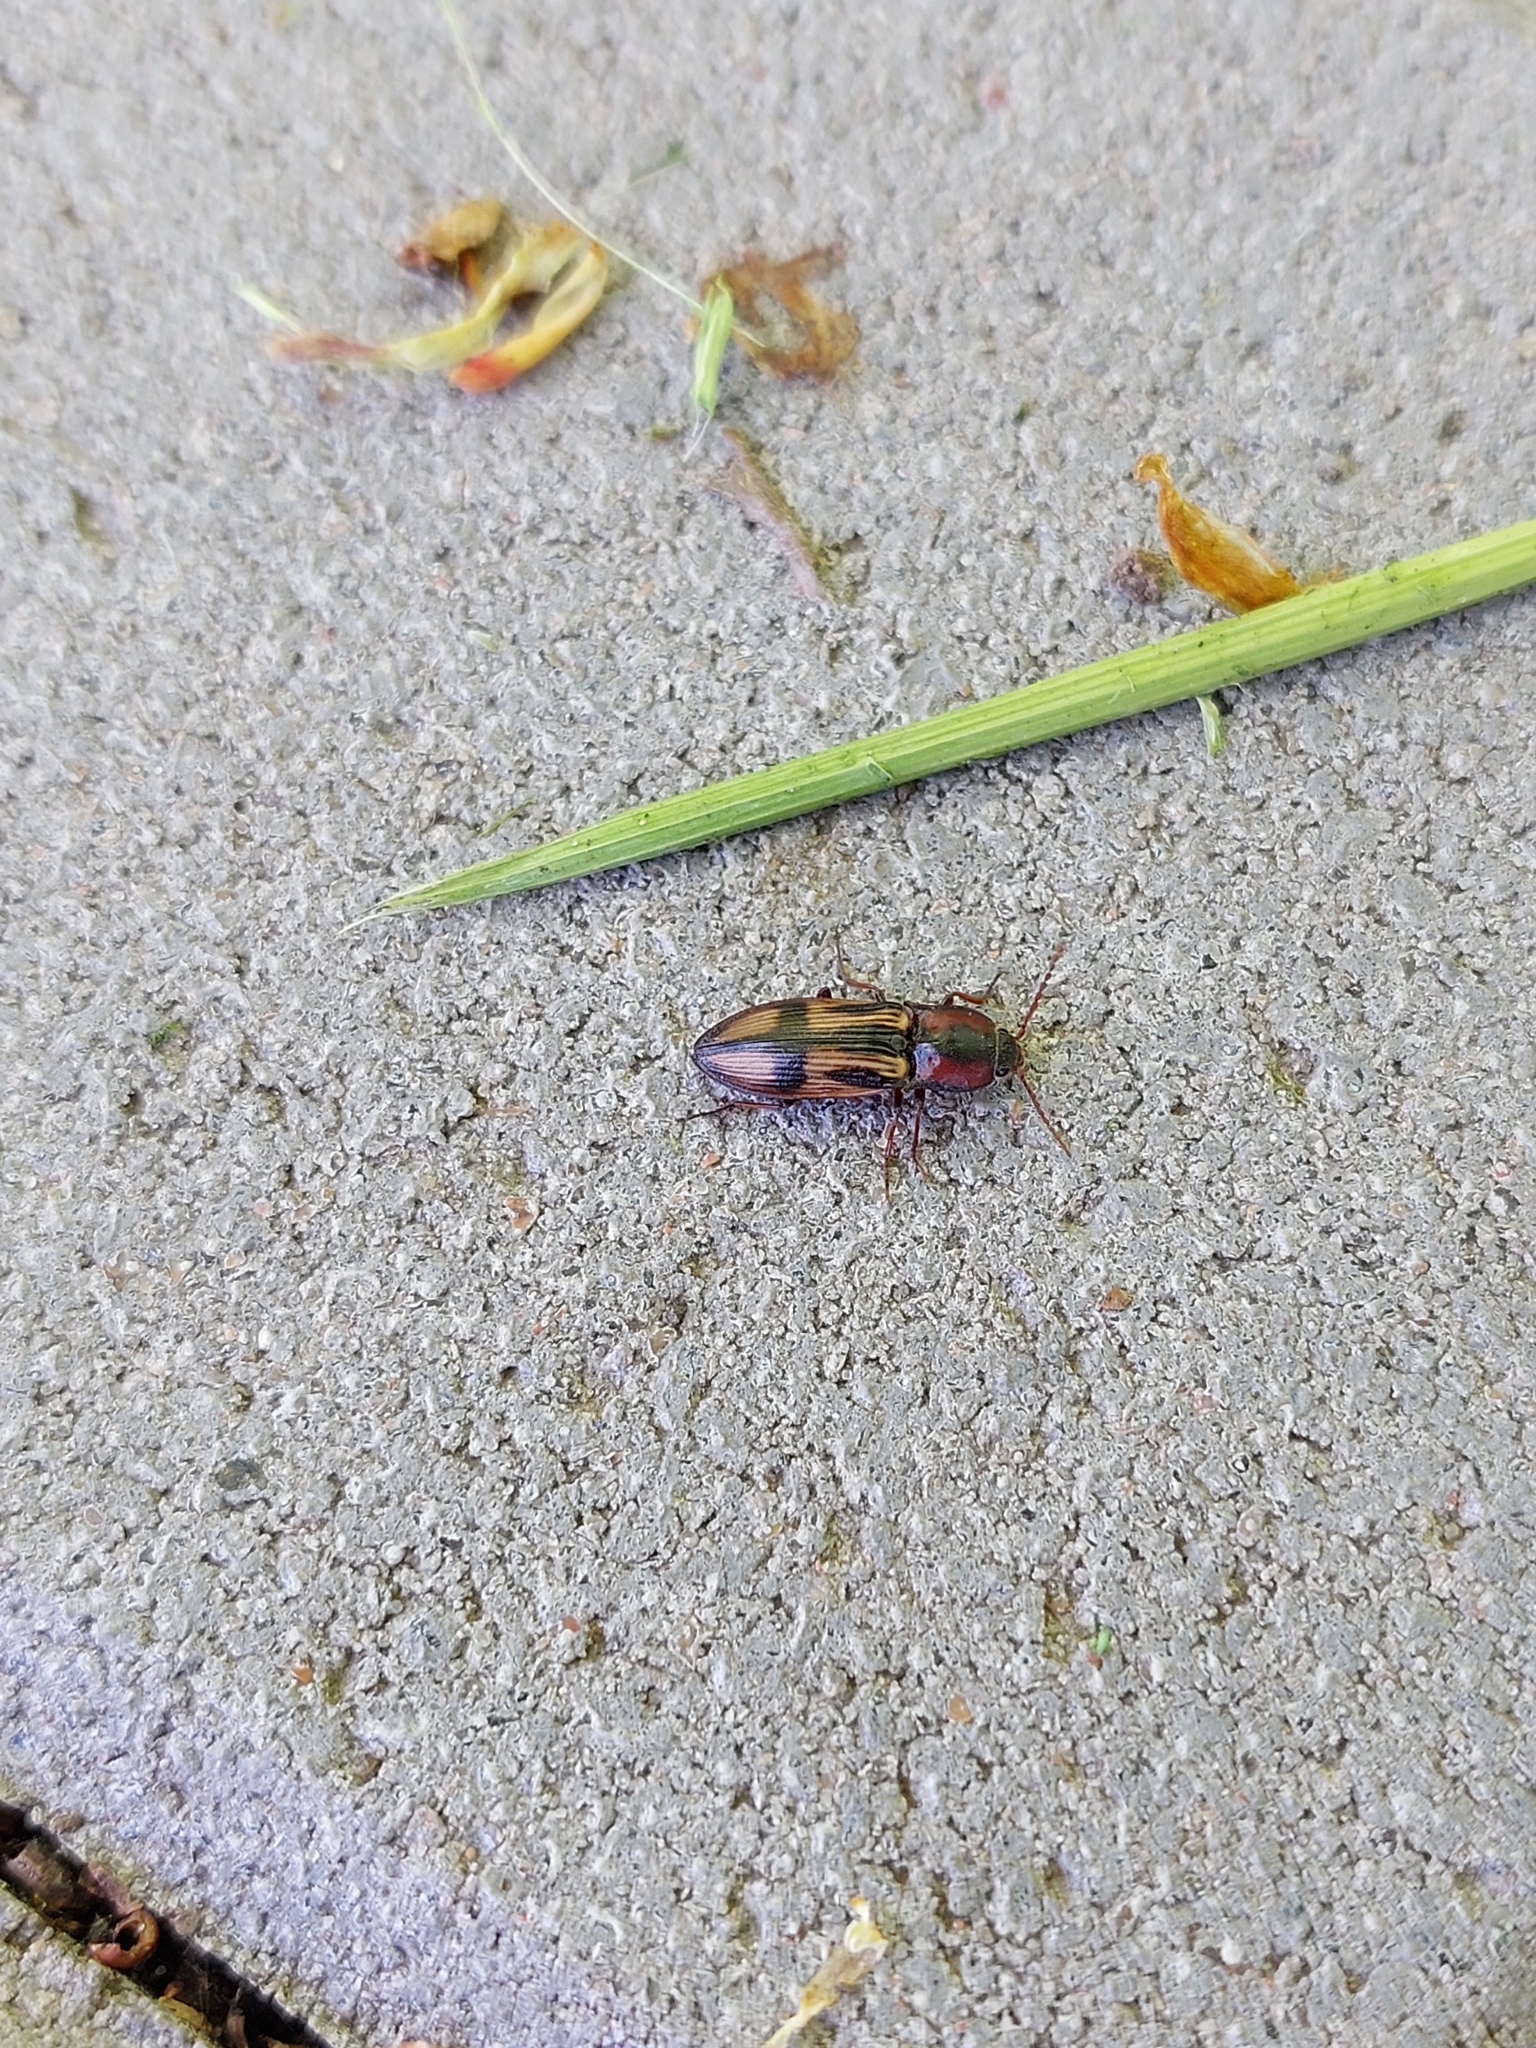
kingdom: Animalia
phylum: Arthropoda
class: Insecta
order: Coleoptera
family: Elateridae
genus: Selatosomus
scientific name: Selatosomus cruciatus
